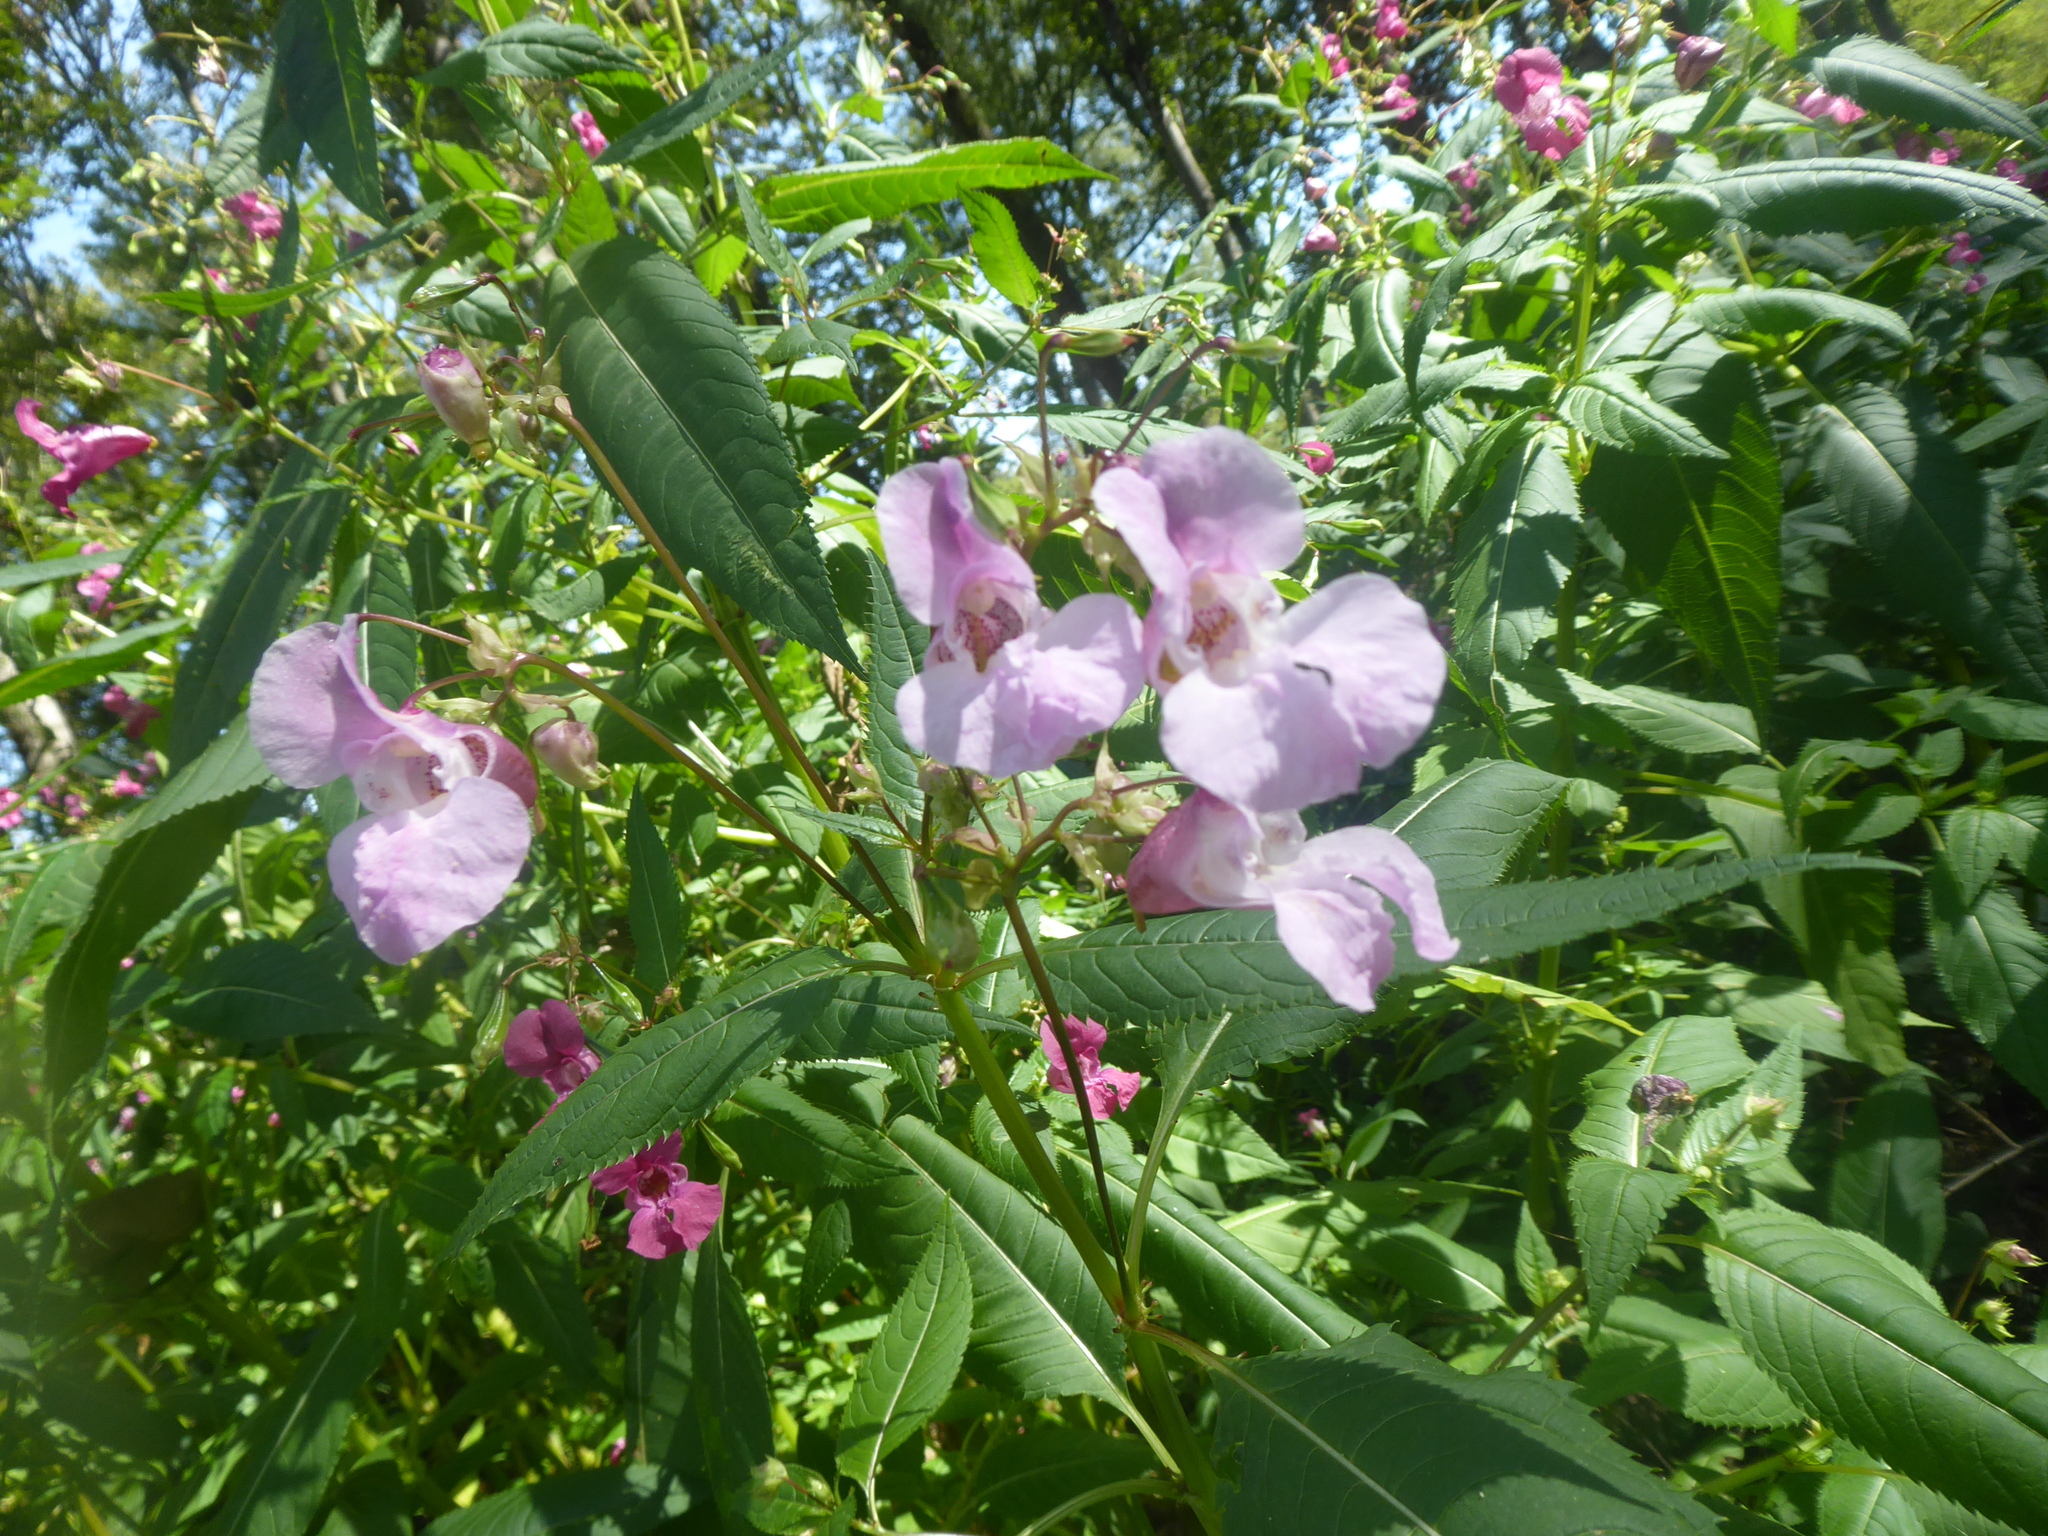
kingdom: Plantae
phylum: Tracheophyta
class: Magnoliopsida
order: Ericales
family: Balsaminaceae
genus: Impatiens
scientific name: Impatiens glandulifera
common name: Himalayan balsam
